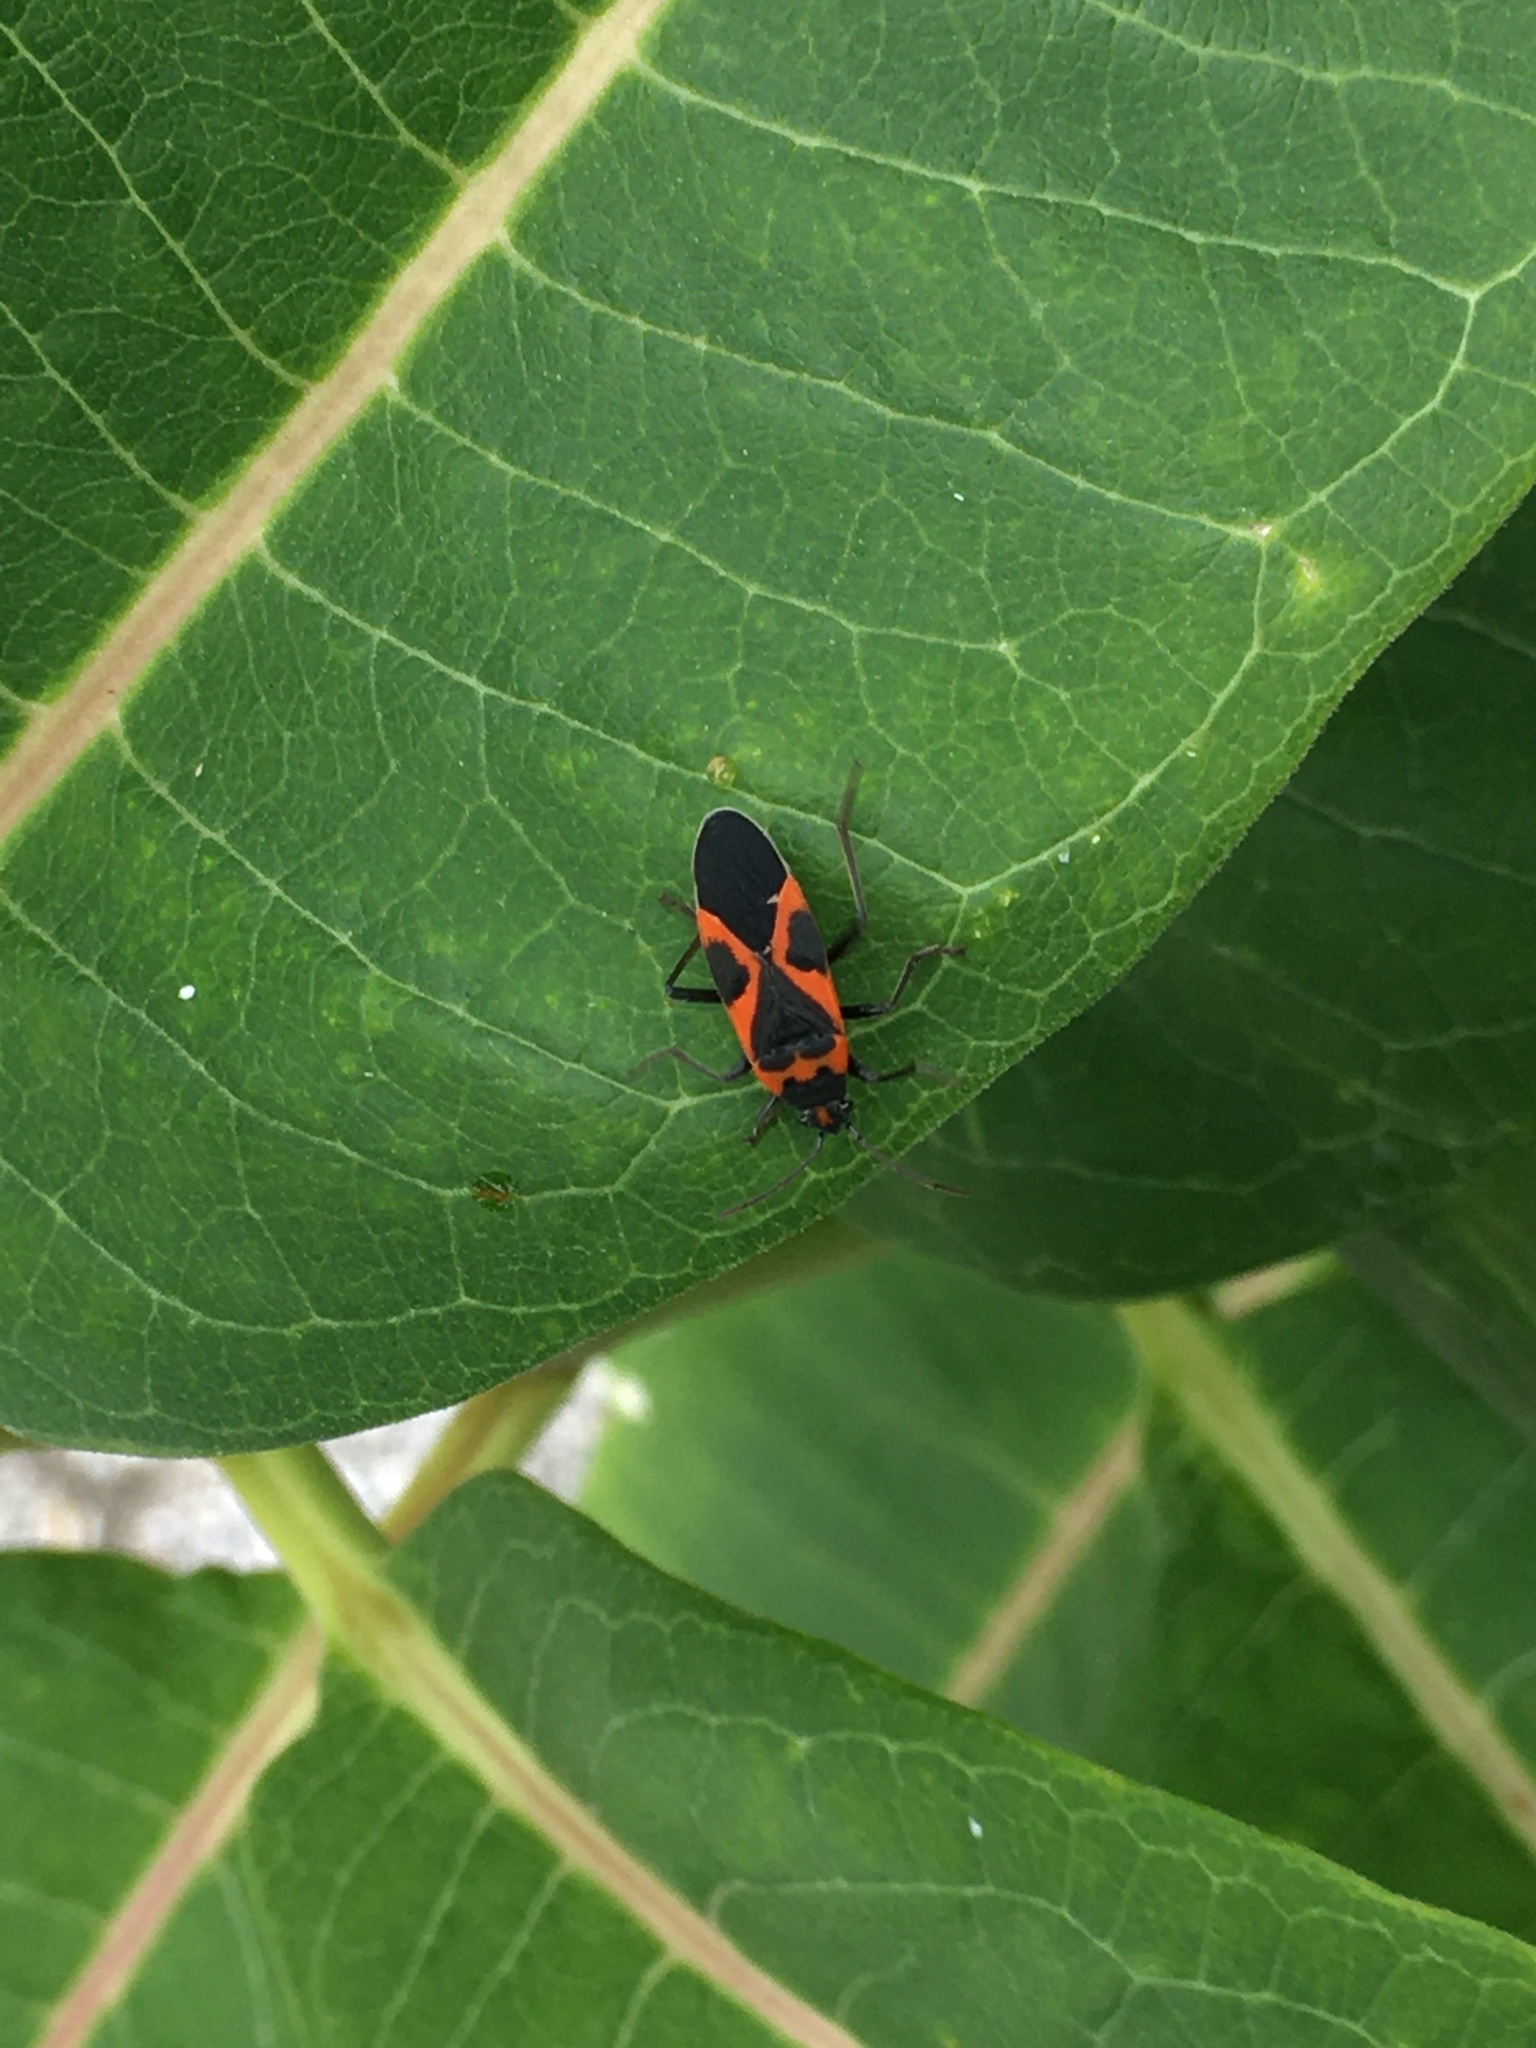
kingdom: Animalia
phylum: Arthropoda
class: Insecta
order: Hemiptera
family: Lygaeidae
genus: Lygaeus
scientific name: Lygaeus kalmii
